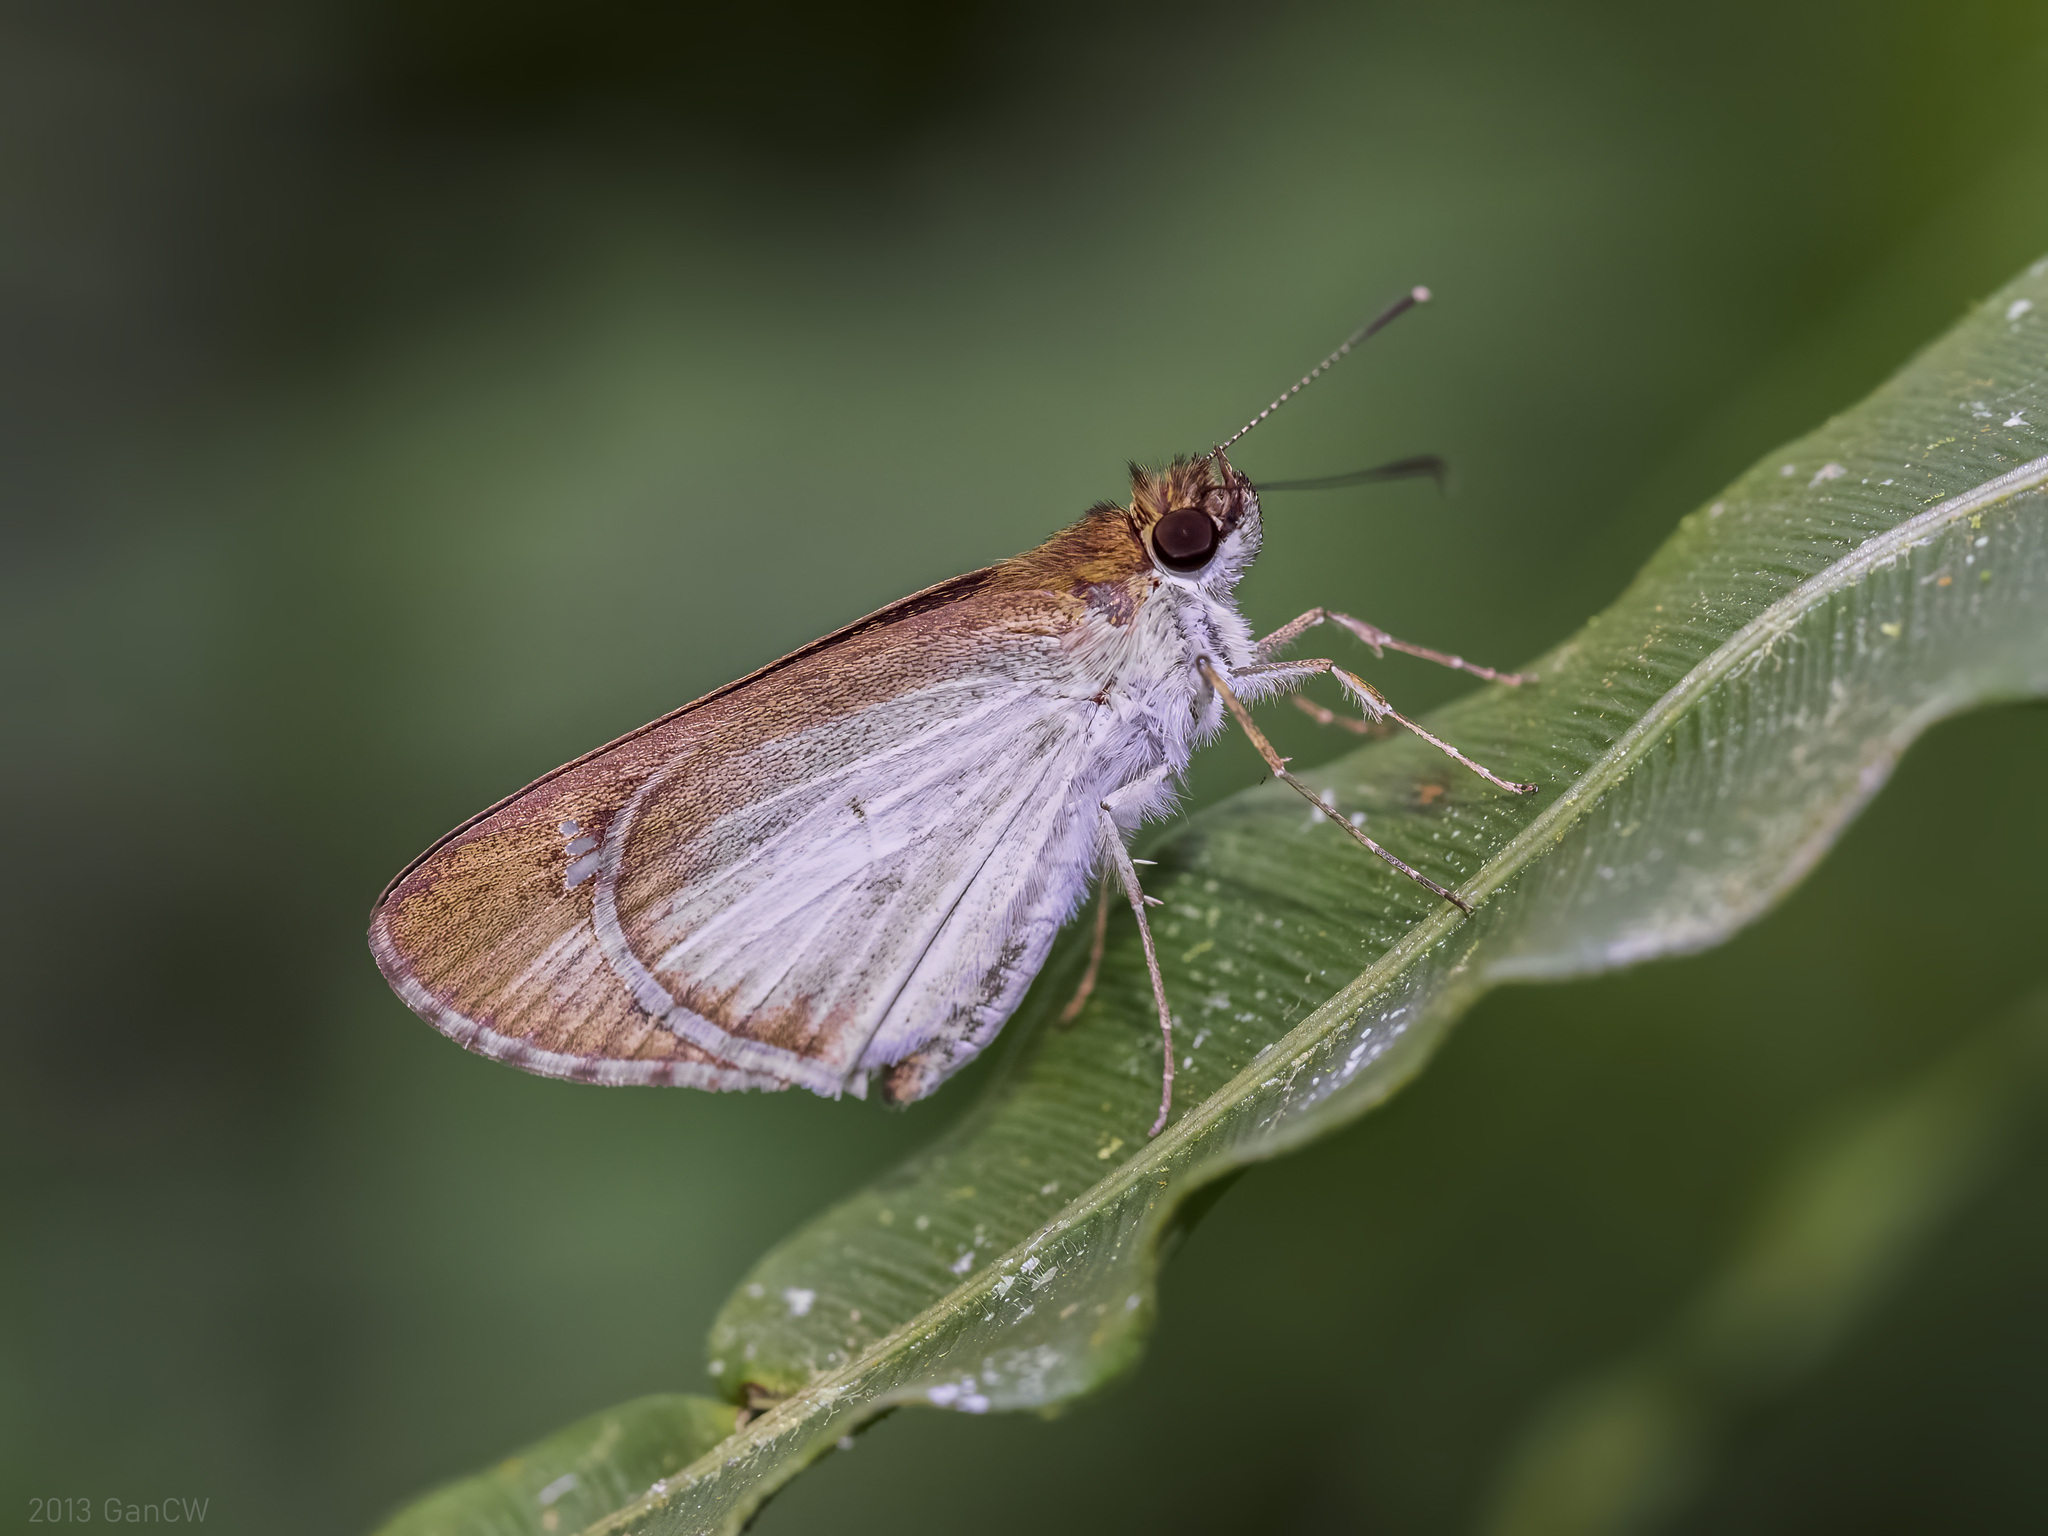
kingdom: Animalia
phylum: Arthropoda
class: Insecta
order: Lepidoptera
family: Hesperiidae
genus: Suada
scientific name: Suada swerga
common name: Grass bob
